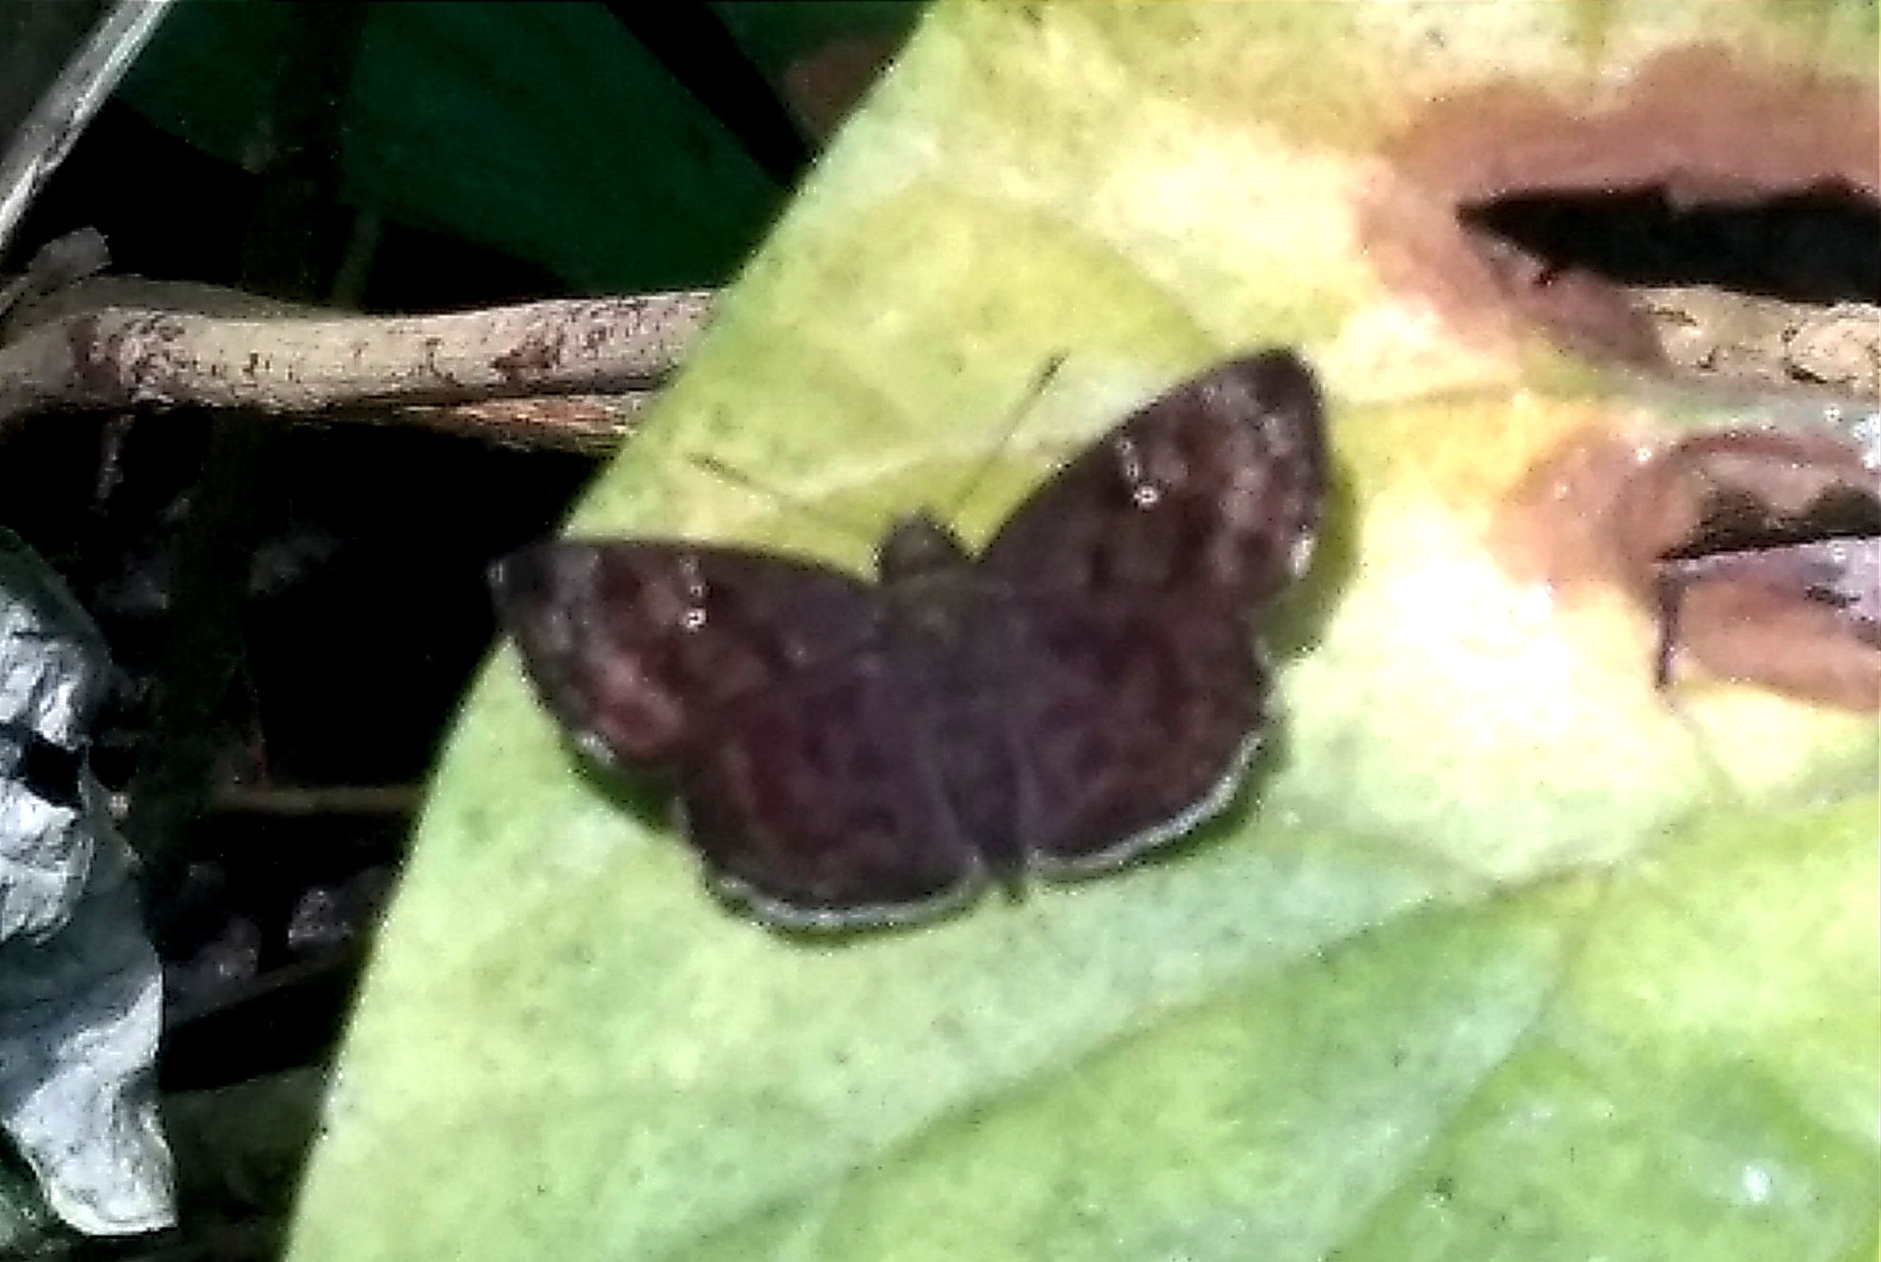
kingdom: Animalia
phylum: Arthropoda
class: Insecta
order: Lepidoptera
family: Hesperiidae
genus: Sarangesa
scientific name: Sarangesa dasahara
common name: Common small flat
